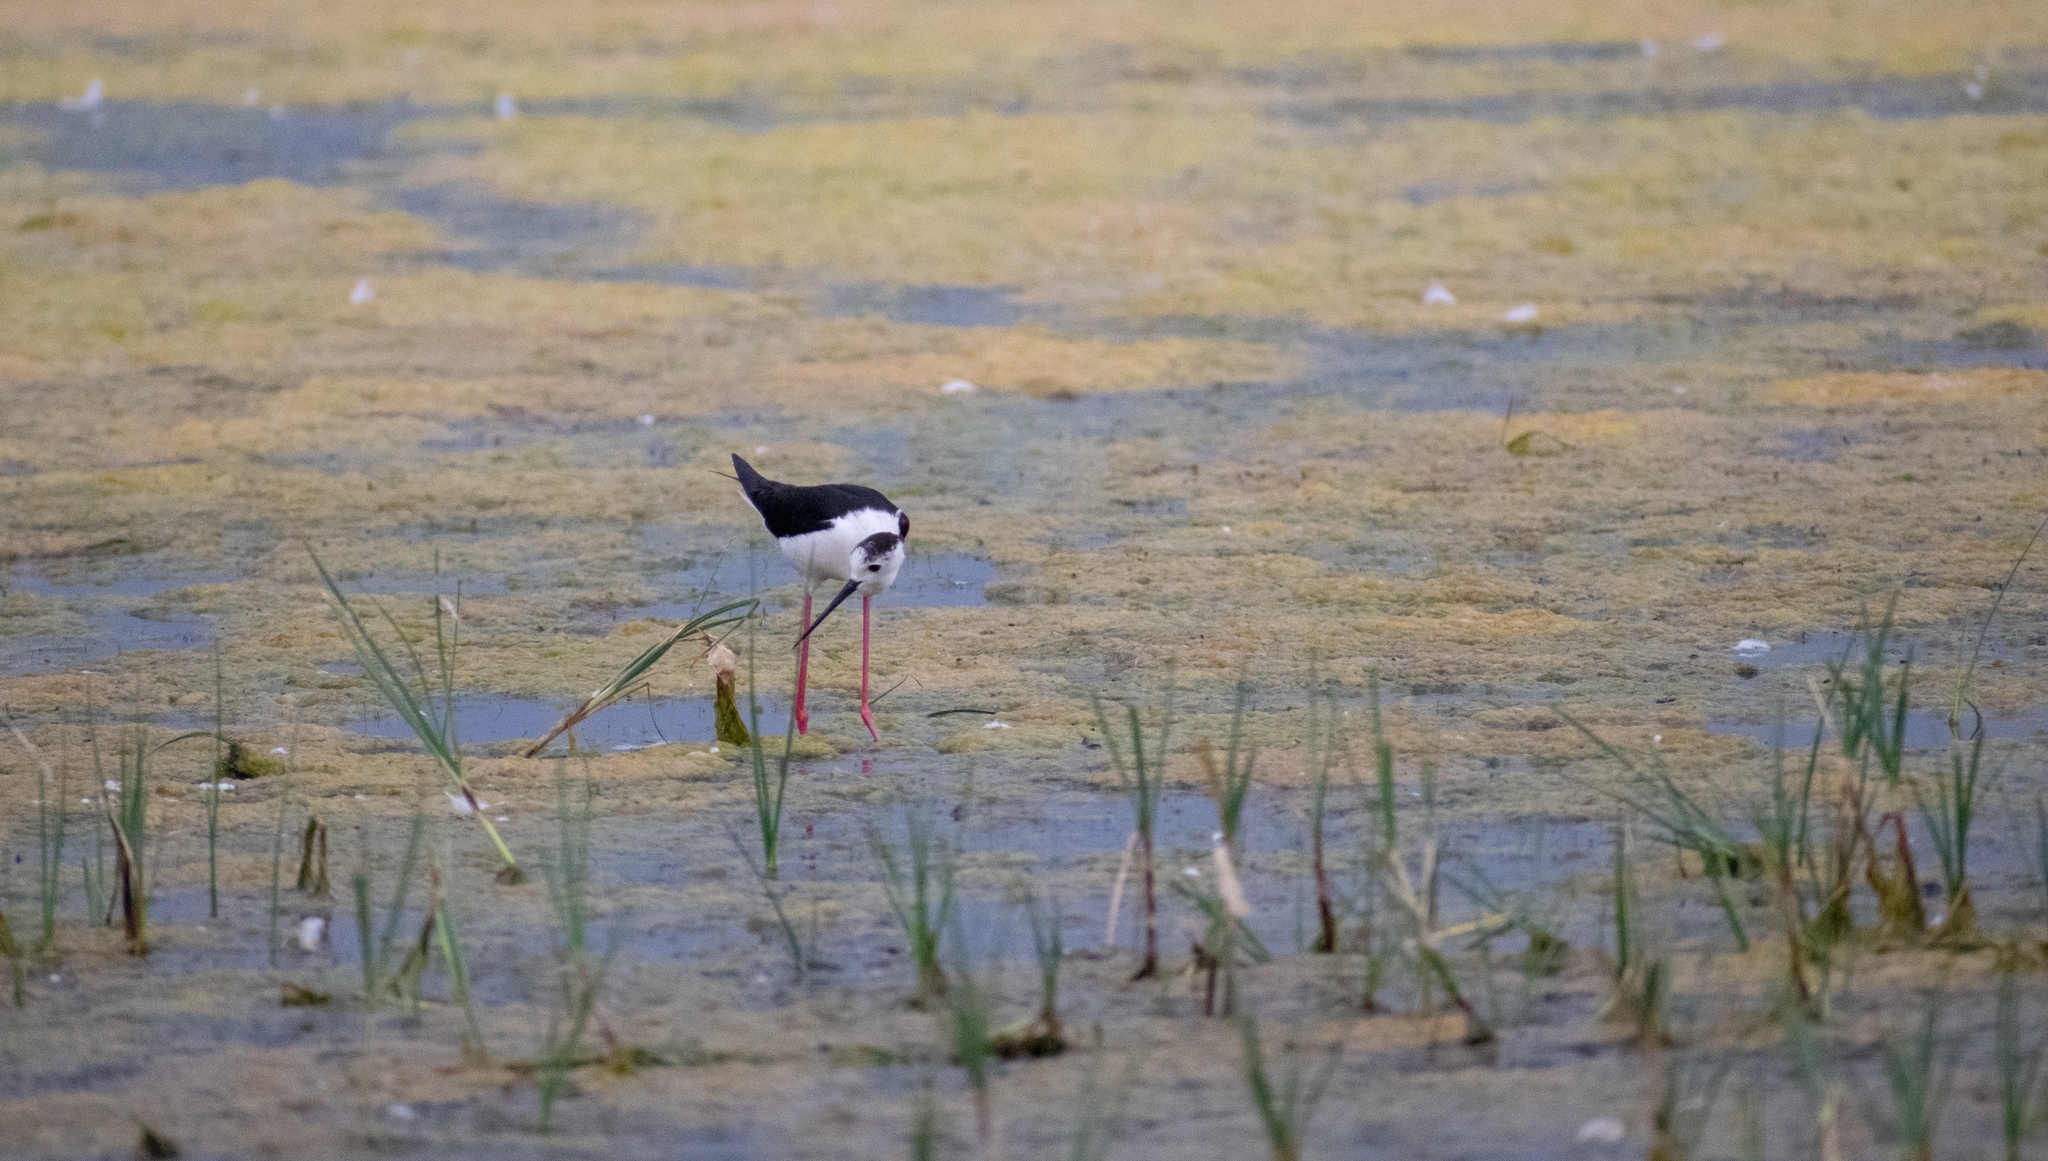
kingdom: Animalia
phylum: Chordata
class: Aves
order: Charadriiformes
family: Recurvirostridae
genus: Himantopus
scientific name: Himantopus himantopus
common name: Black-winged stilt
